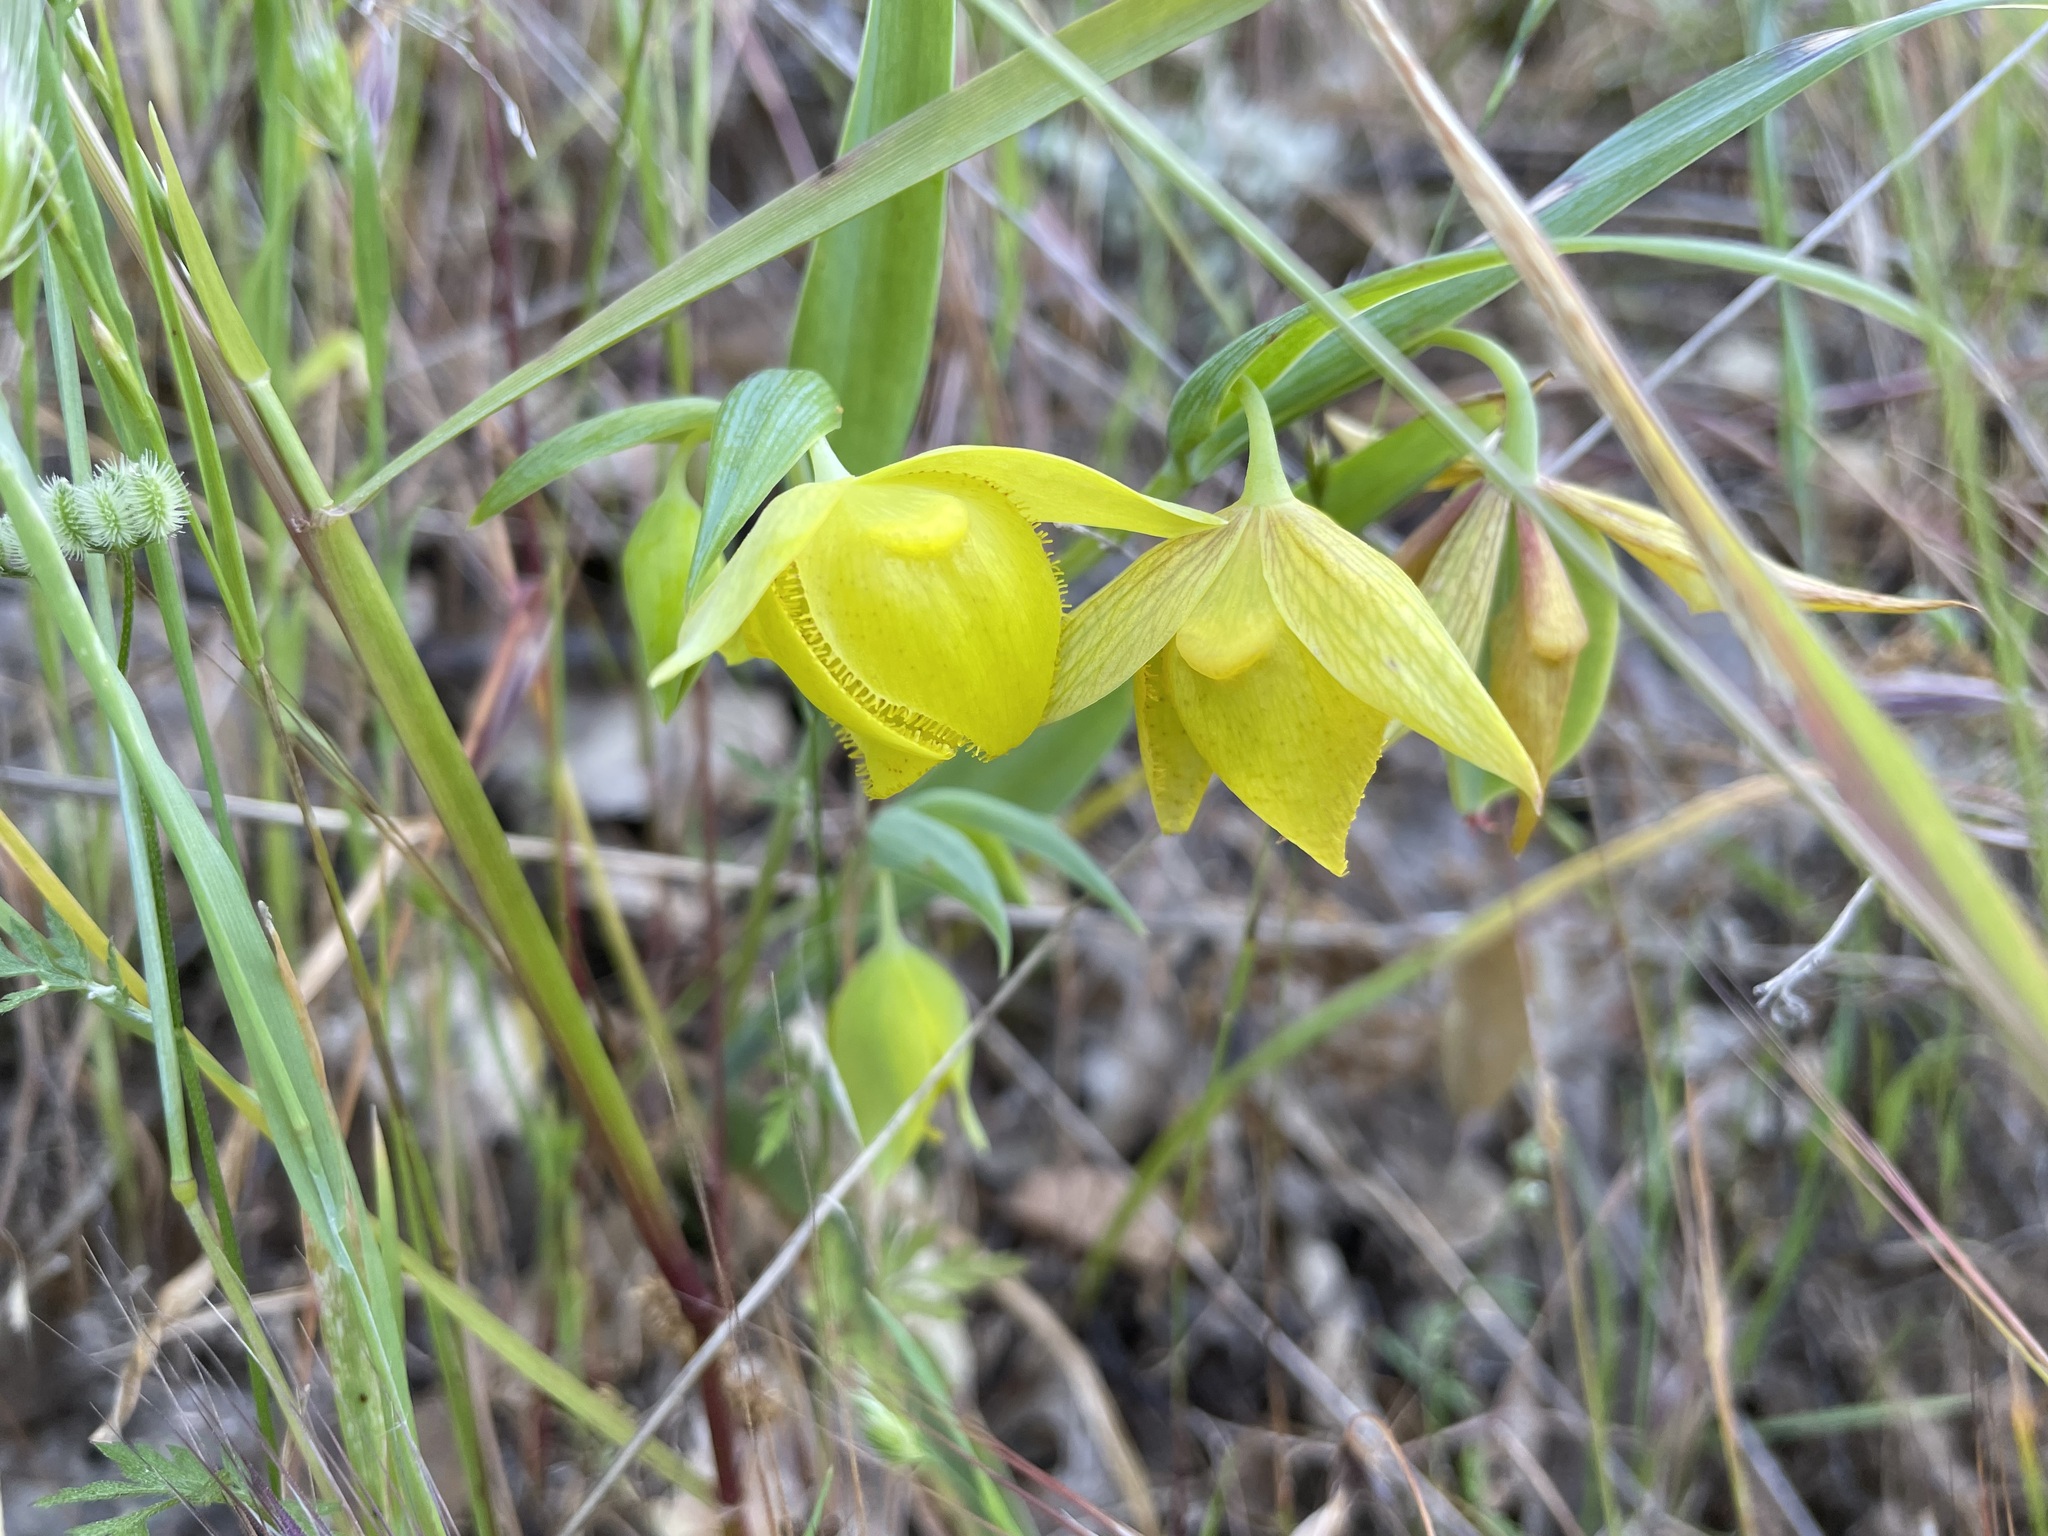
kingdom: Plantae
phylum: Tracheophyta
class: Liliopsida
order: Liliales
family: Liliaceae
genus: Calochortus
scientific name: Calochortus pulchellus
